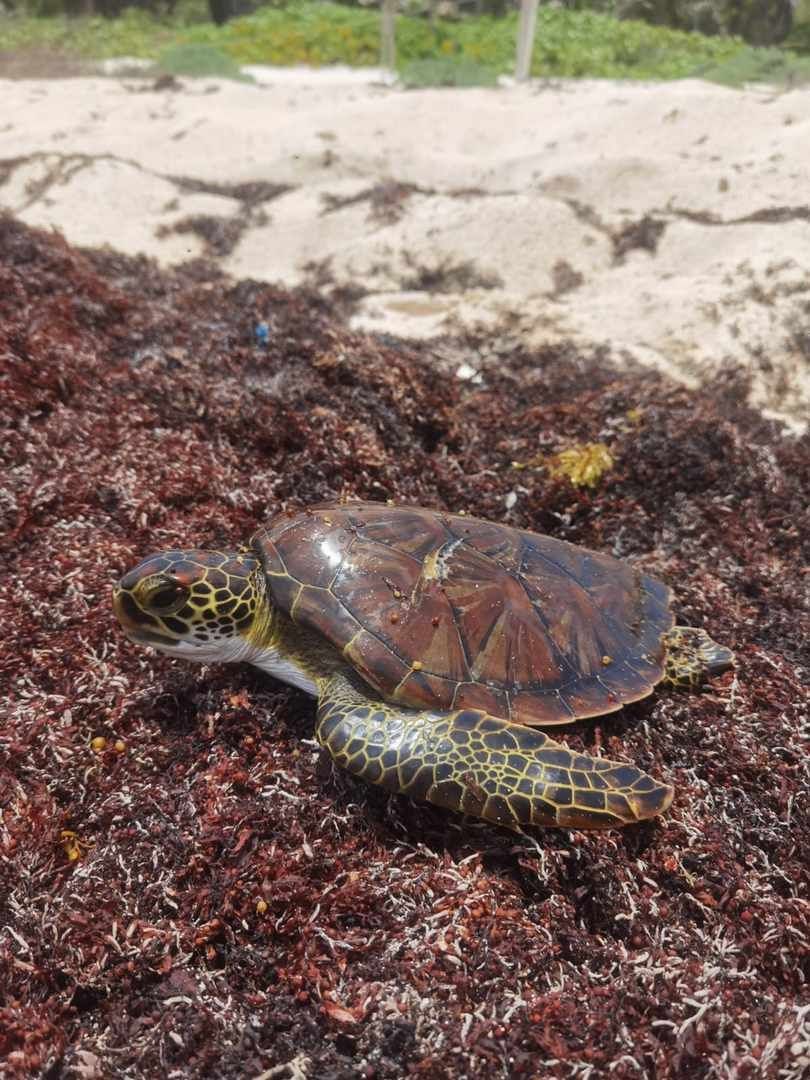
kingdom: Animalia
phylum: Chordata
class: Testudines
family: Cheloniidae
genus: Chelonia
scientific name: Chelonia mydas
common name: Green turtle
